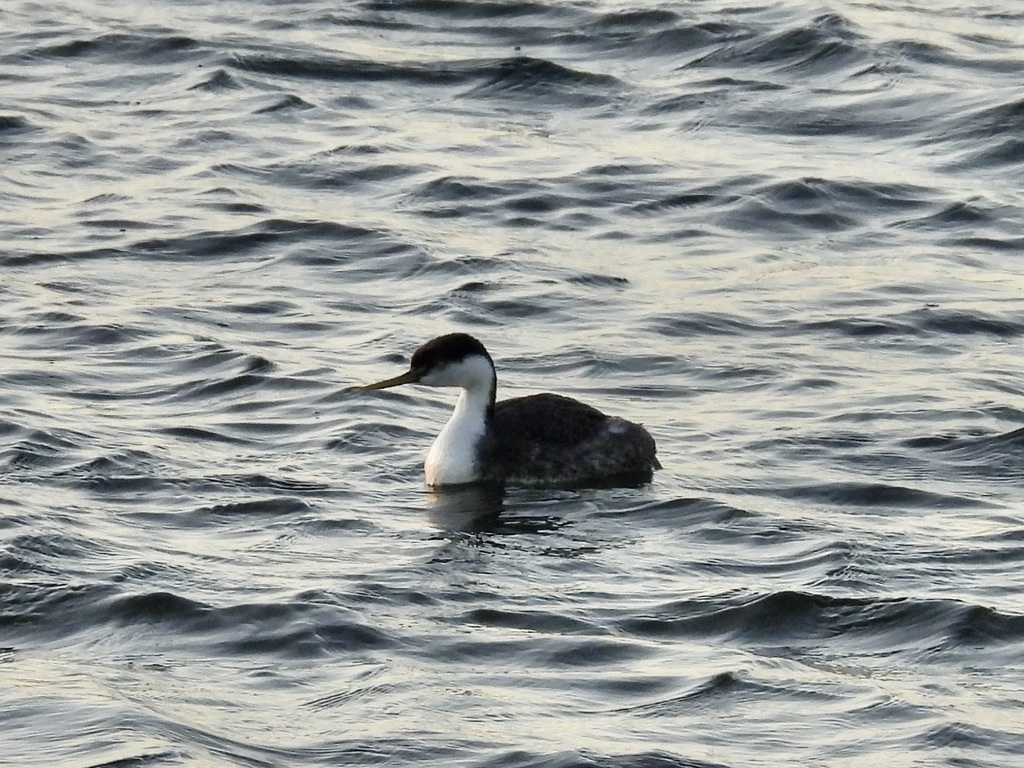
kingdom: Animalia
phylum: Chordata
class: Aves
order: Podicipediformes
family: Podicipedidae
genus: Aechmophorus
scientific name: Aechmophorus occidentalis
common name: Western grebe
